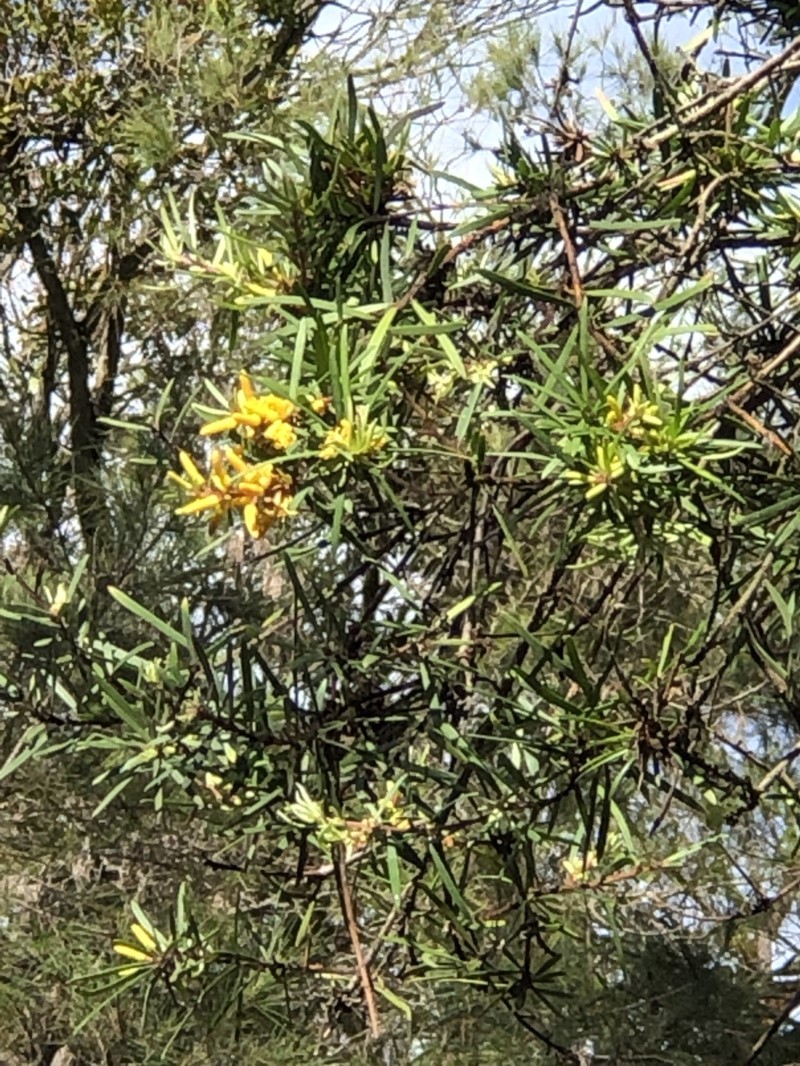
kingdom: Plantae
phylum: Tracheophyta
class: Magnoliopsida
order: Proteales
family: Proteaceae
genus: Persoonia
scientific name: Persoonia linearis
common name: Narrow-leaf geebung
